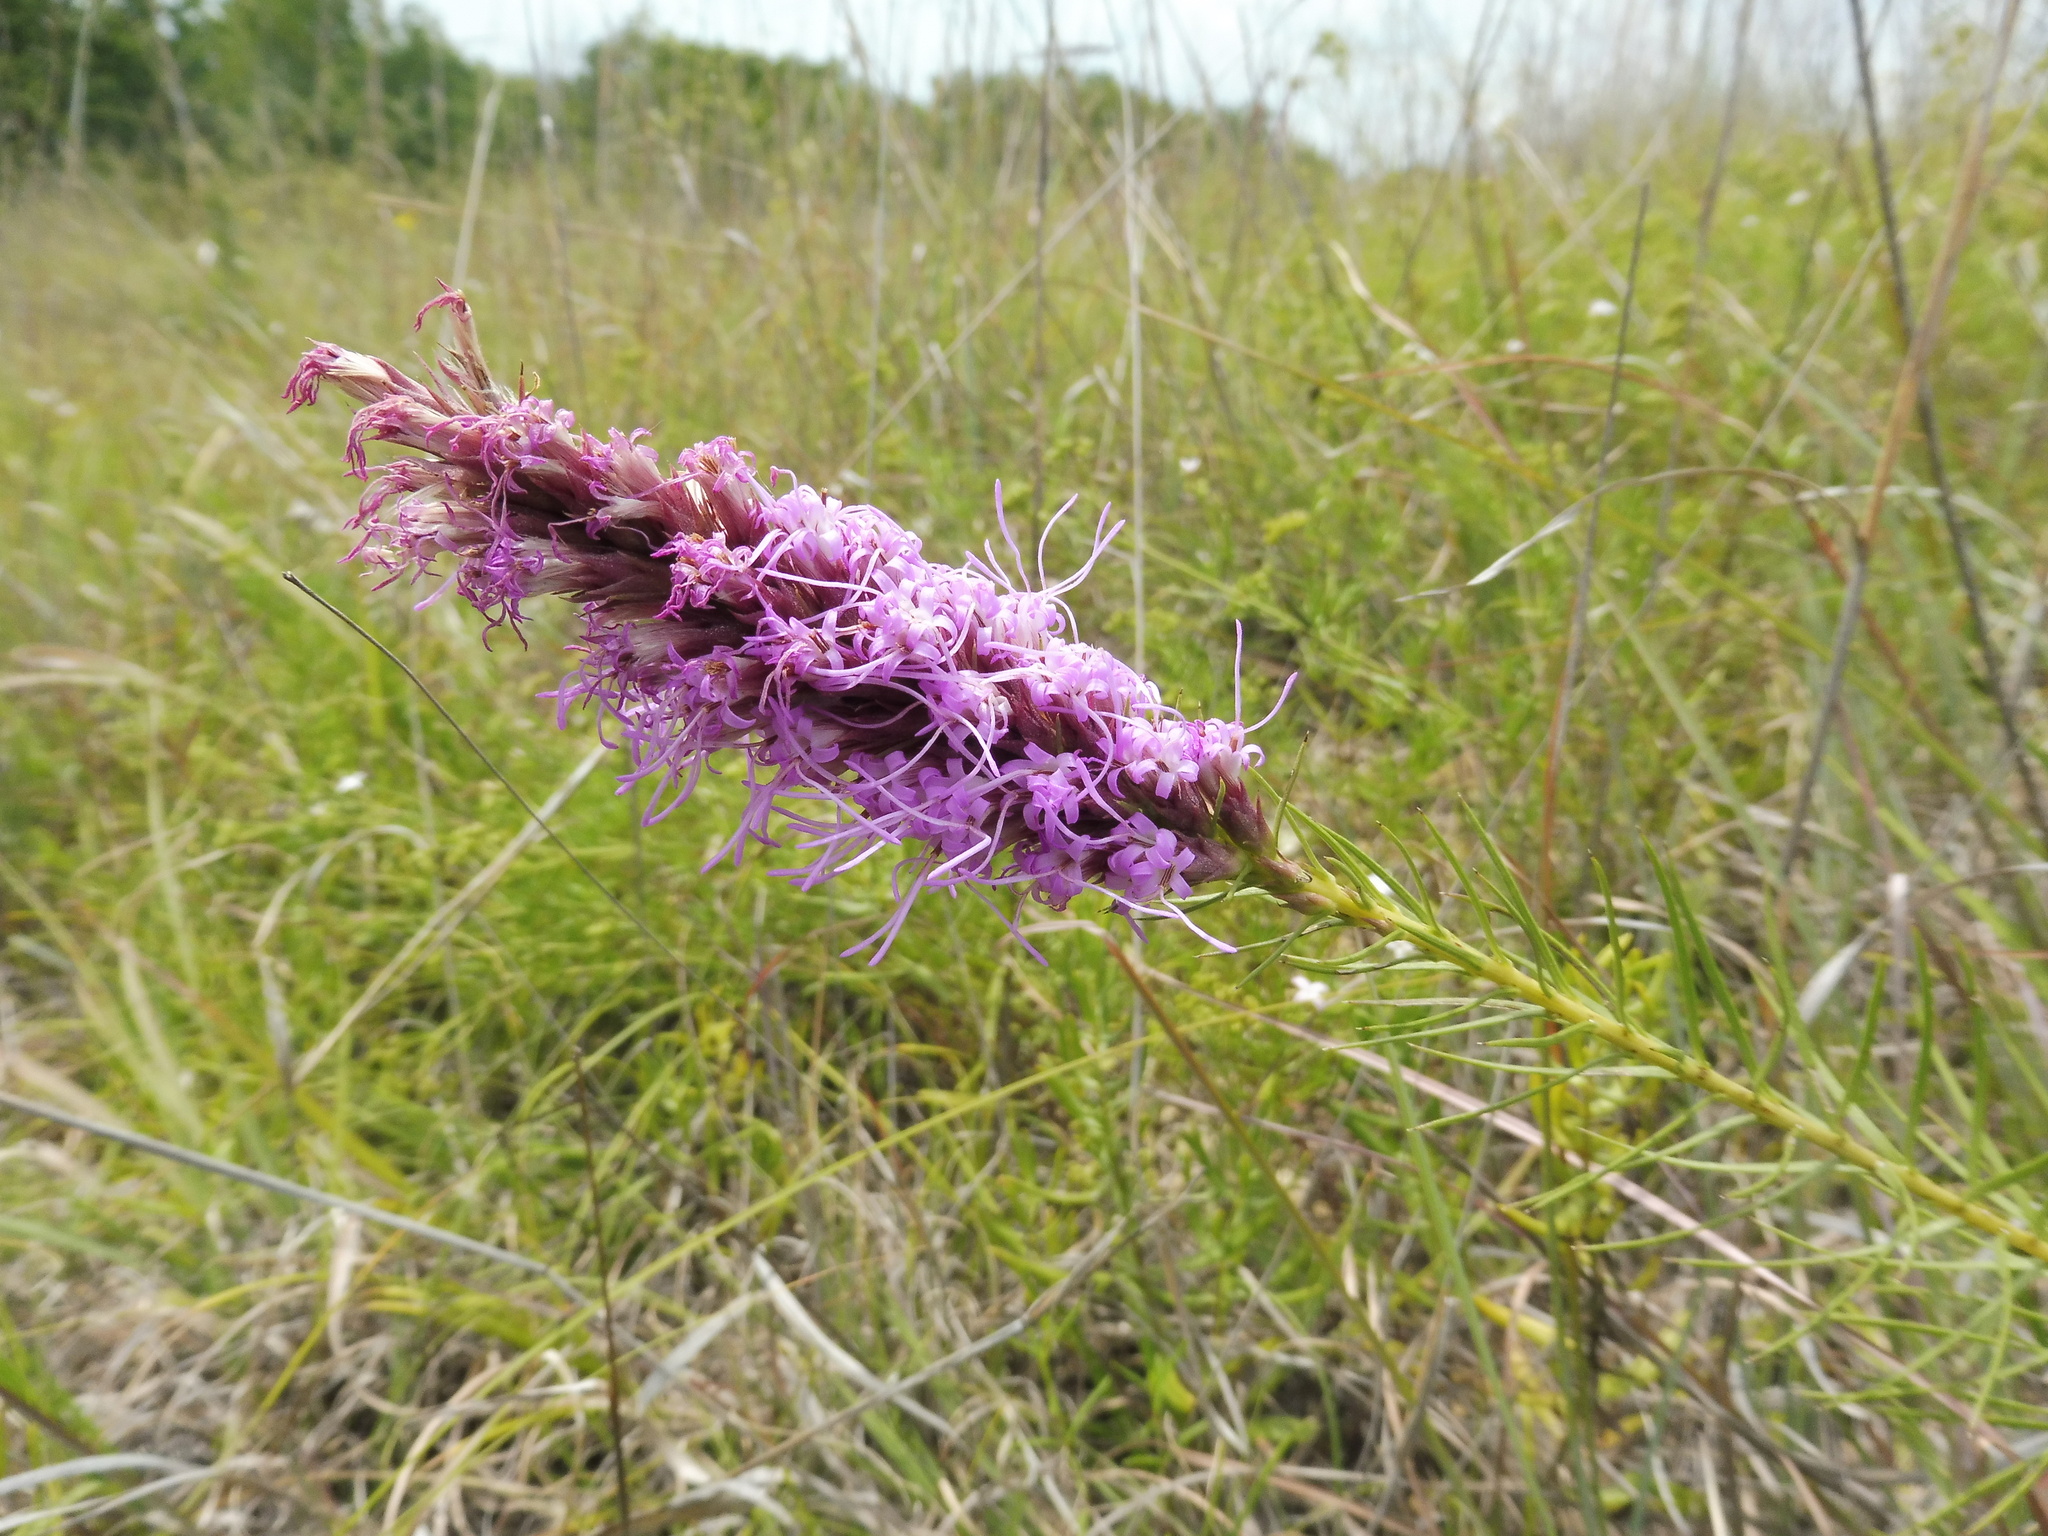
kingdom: Plantae
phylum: Tracheophyta
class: Magnoliopsida
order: Asterales
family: Asteraceae
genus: Liatris
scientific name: Liatris aestivalis
